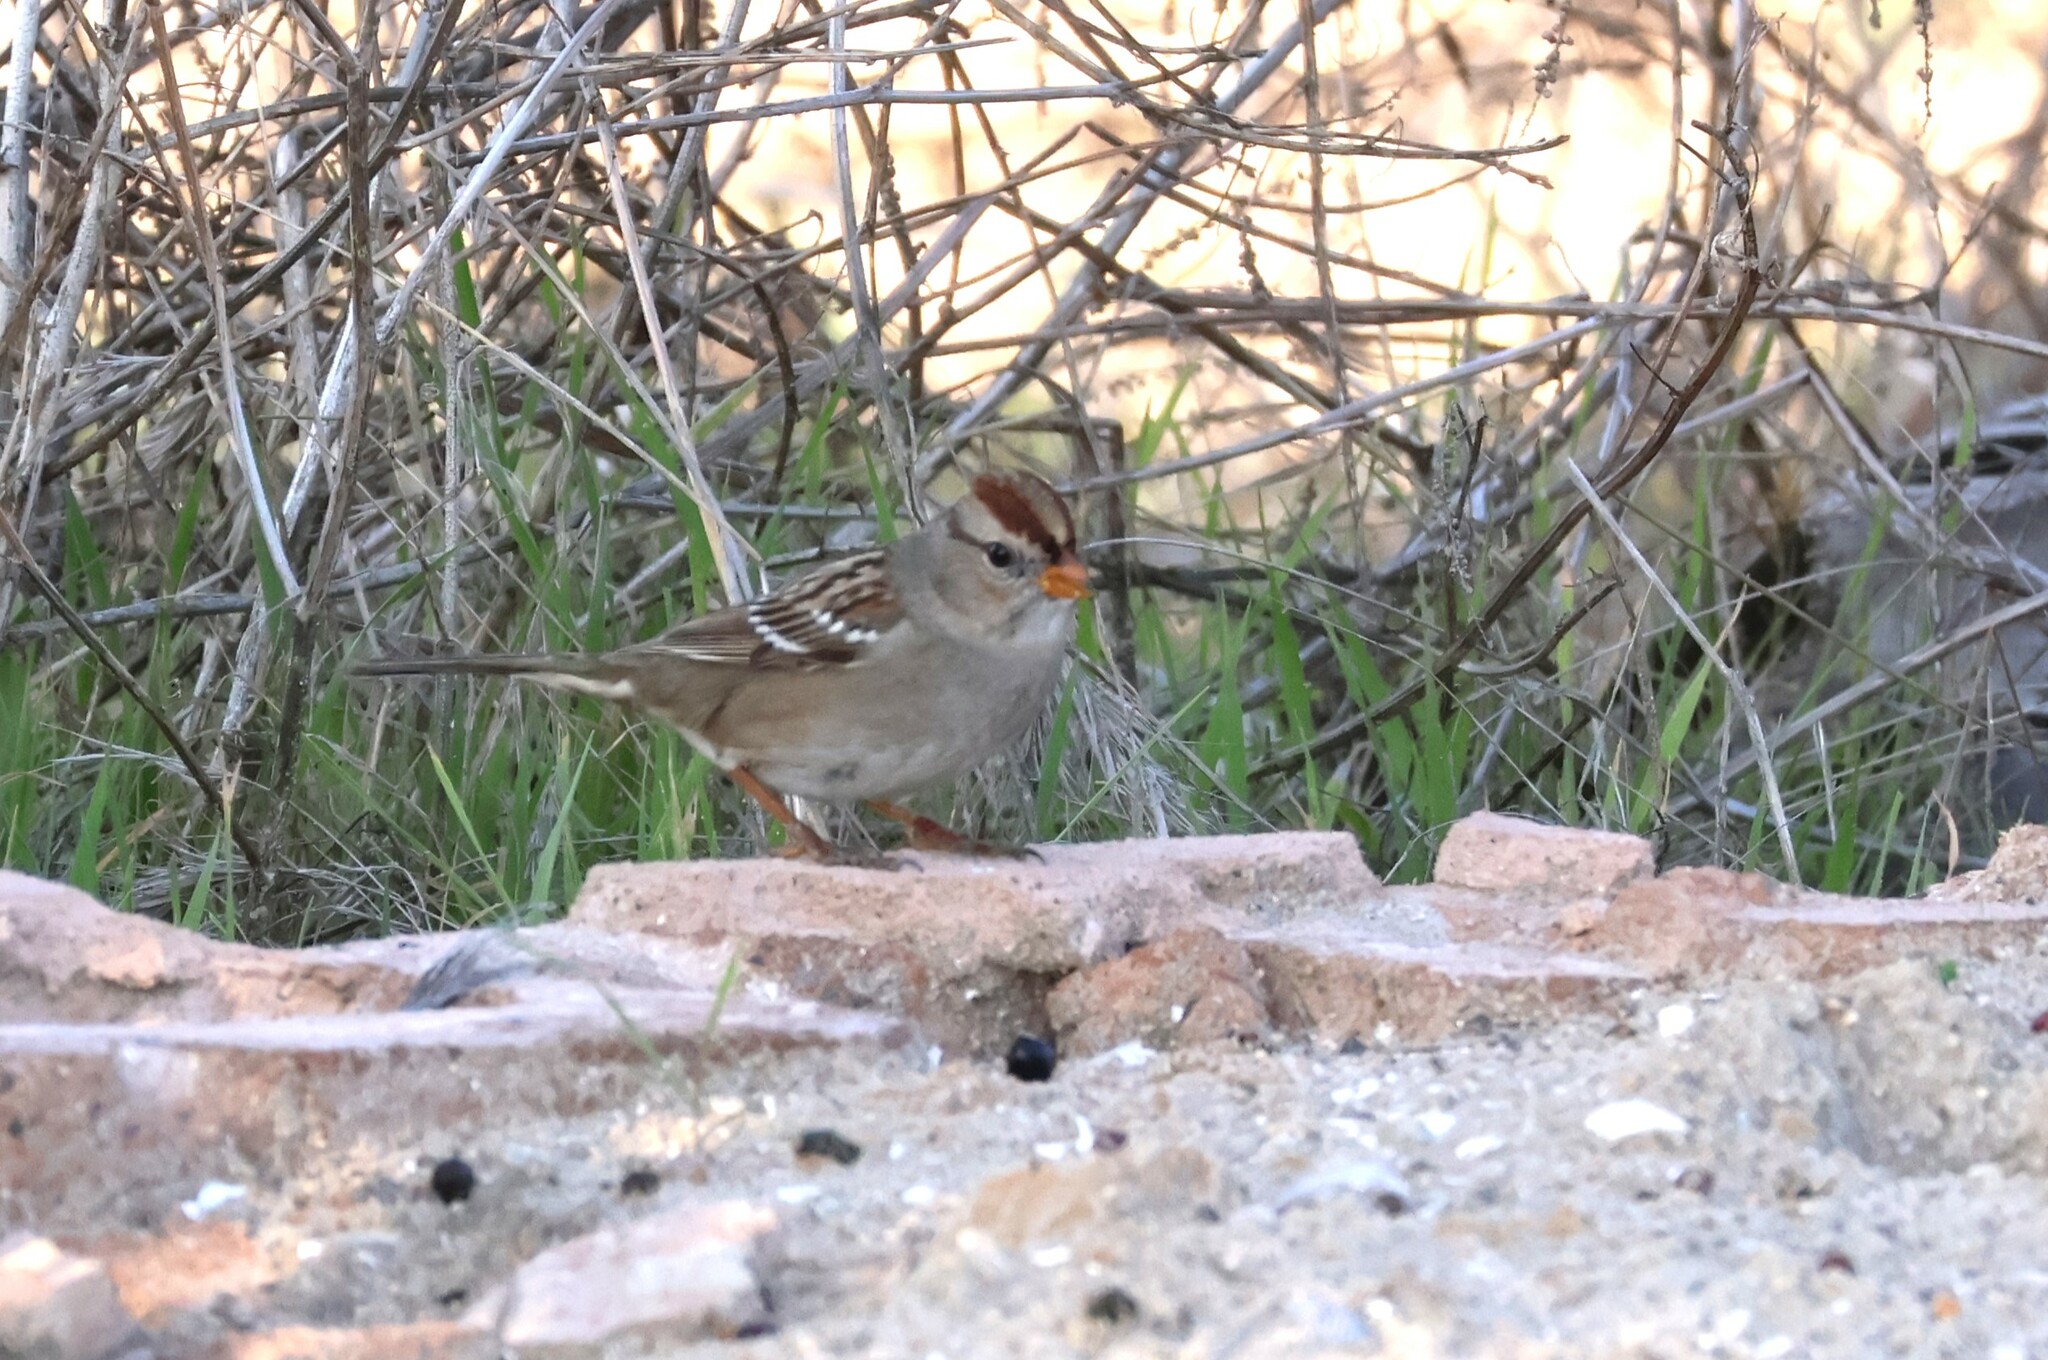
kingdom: Animalia
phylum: Chordata
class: Aves
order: Passeriformes
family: Passerellidae
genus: Zonotrichia
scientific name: Zonotrichia leucophrys
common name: White-crowned sparrow
